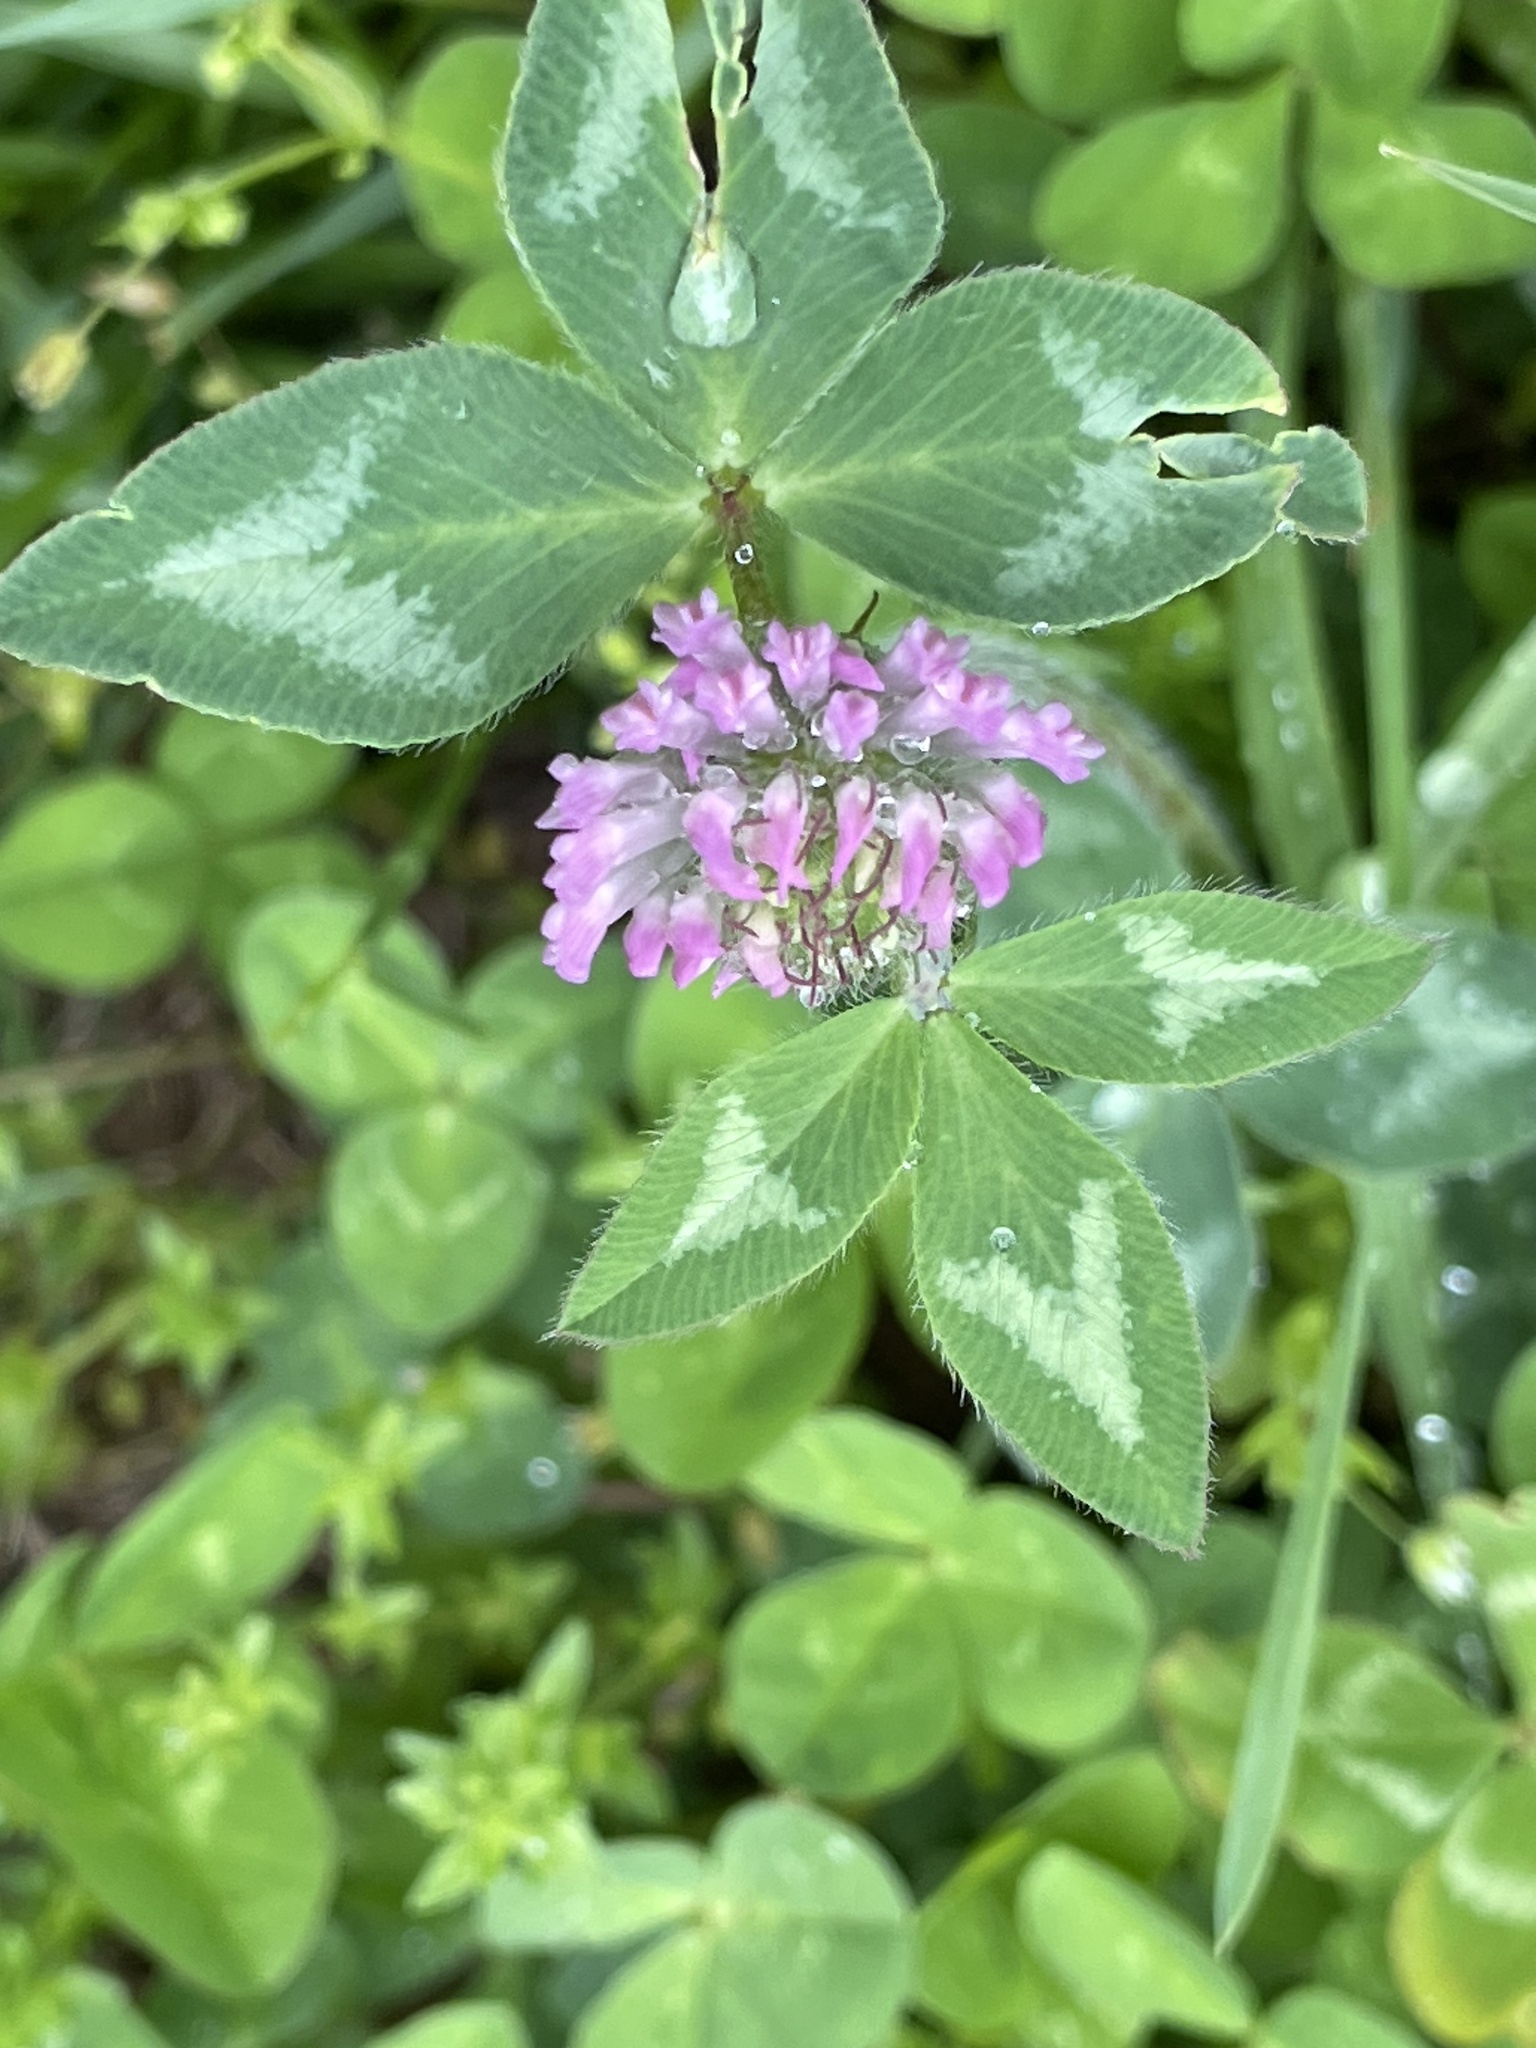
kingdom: Plantae
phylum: Tracheophyta
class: Magnoliopsida
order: Fabales
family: Fabaceae
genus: Trifolium
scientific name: Trifolium pratense
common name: Red clover
